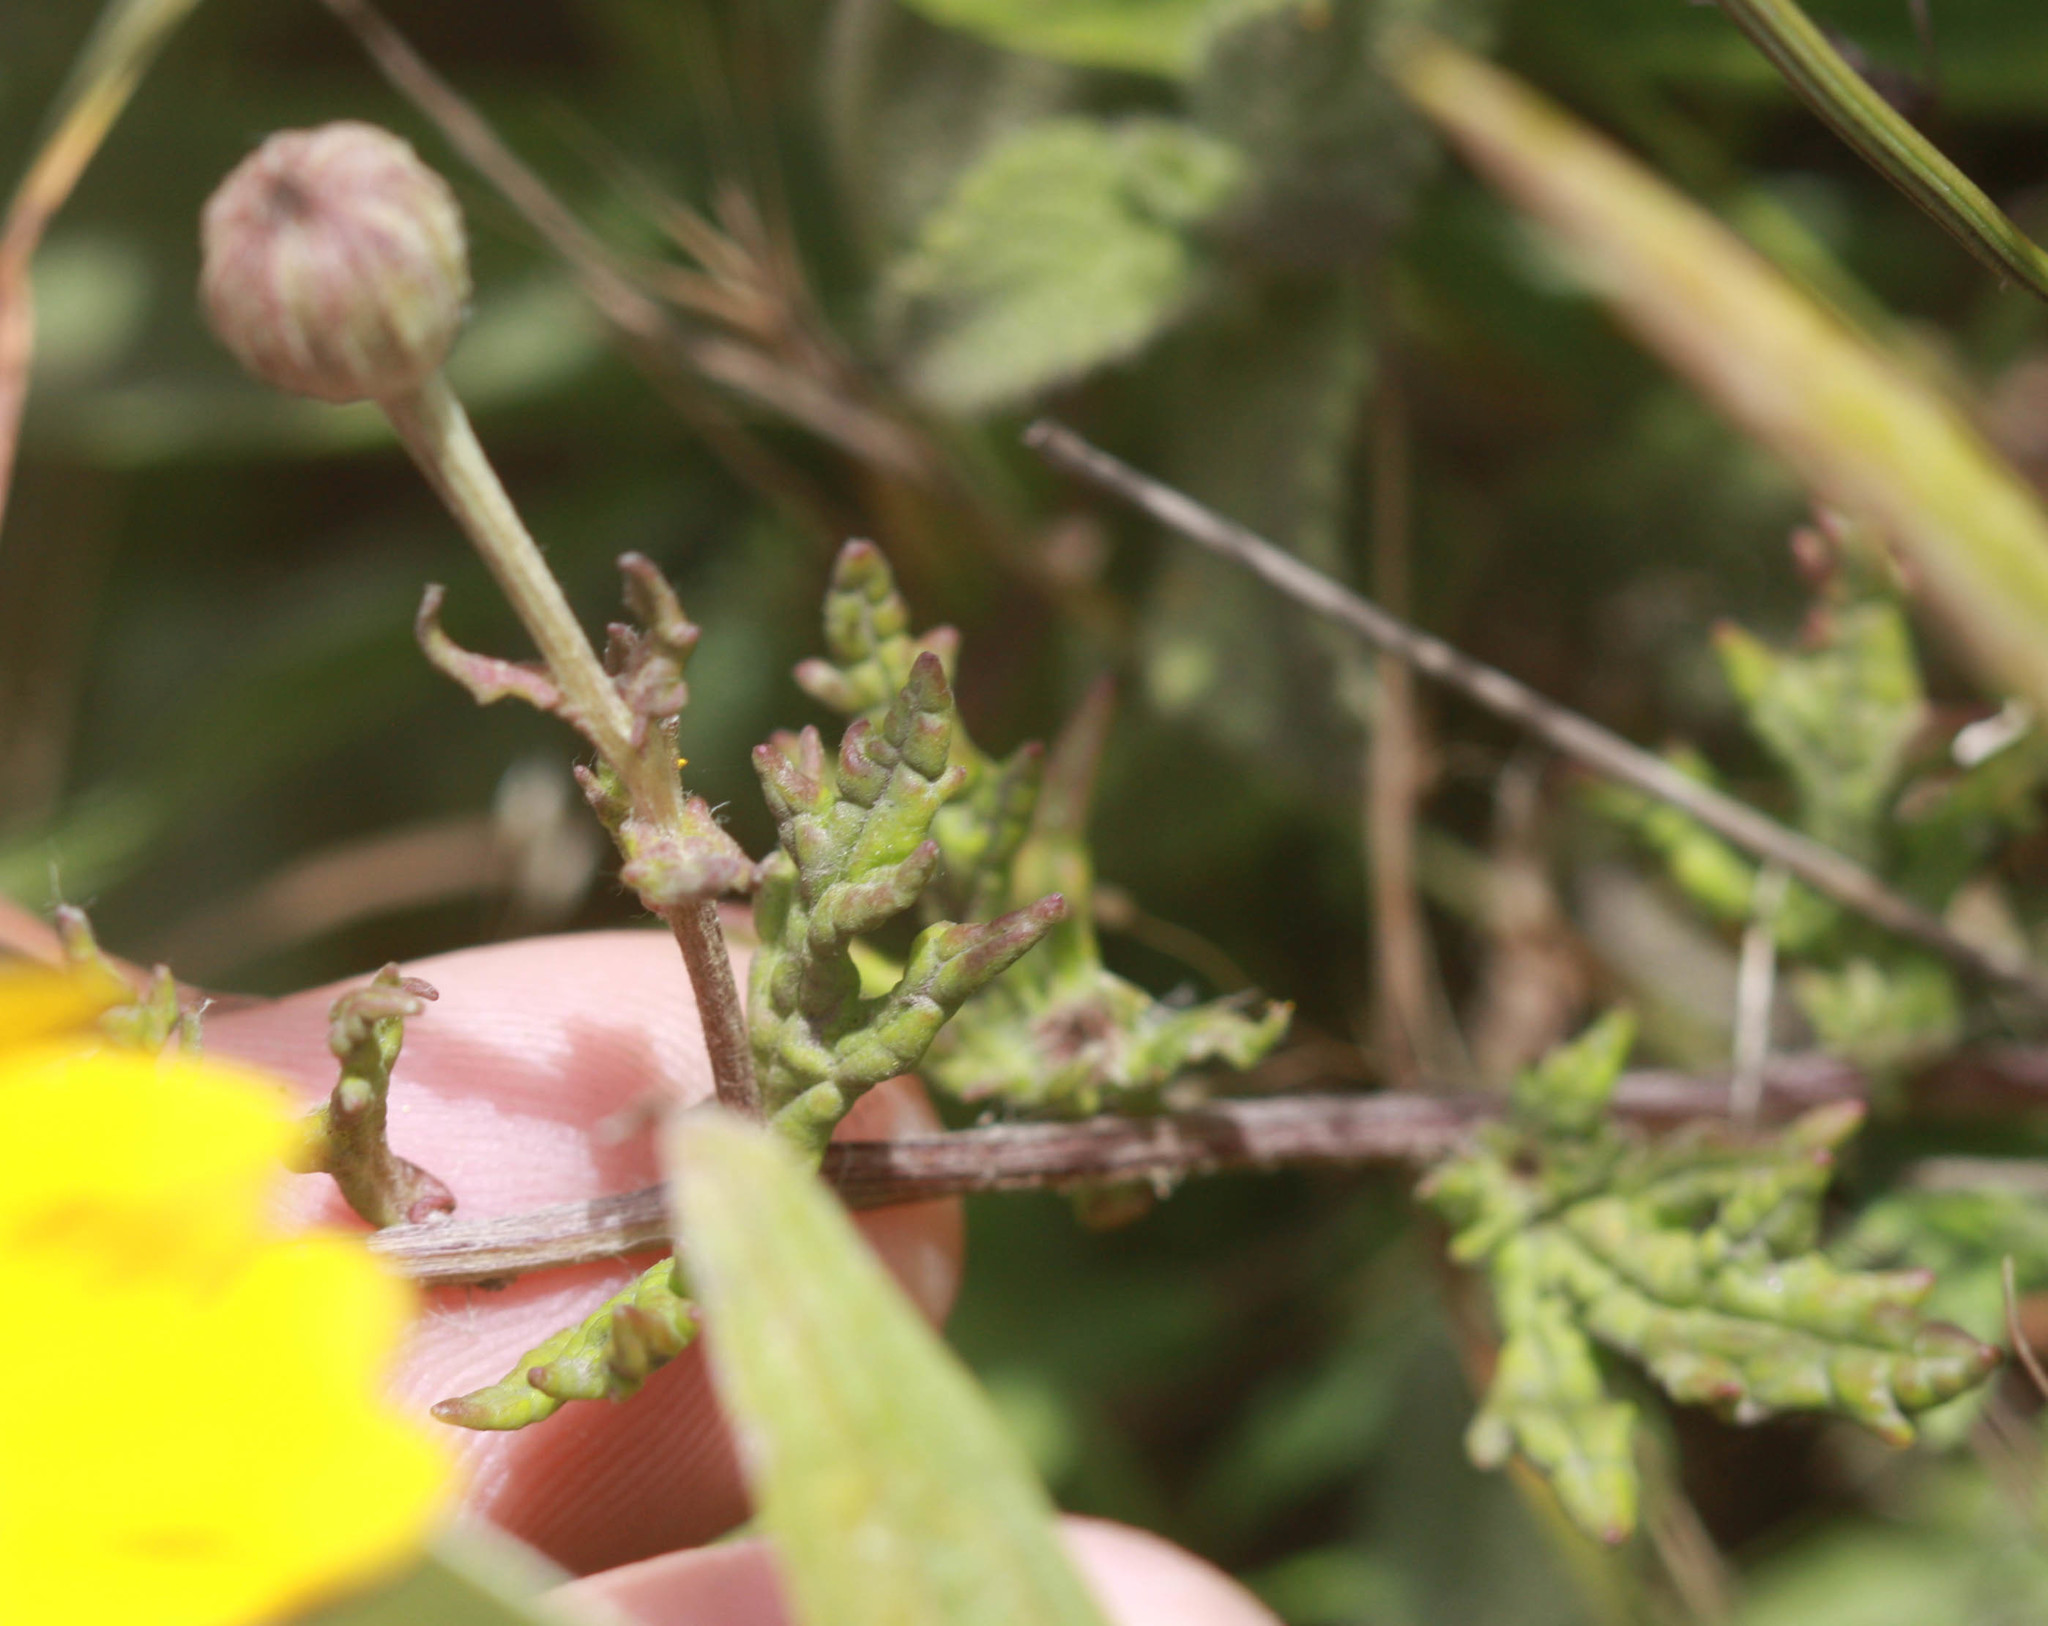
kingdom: Plantae
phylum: Tracheophyta
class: Magnoliopsida
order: Asterales
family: Asteraceae
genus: Eriophyllum
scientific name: Eriophyllum lanatum
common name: Common woolly-sunflower
